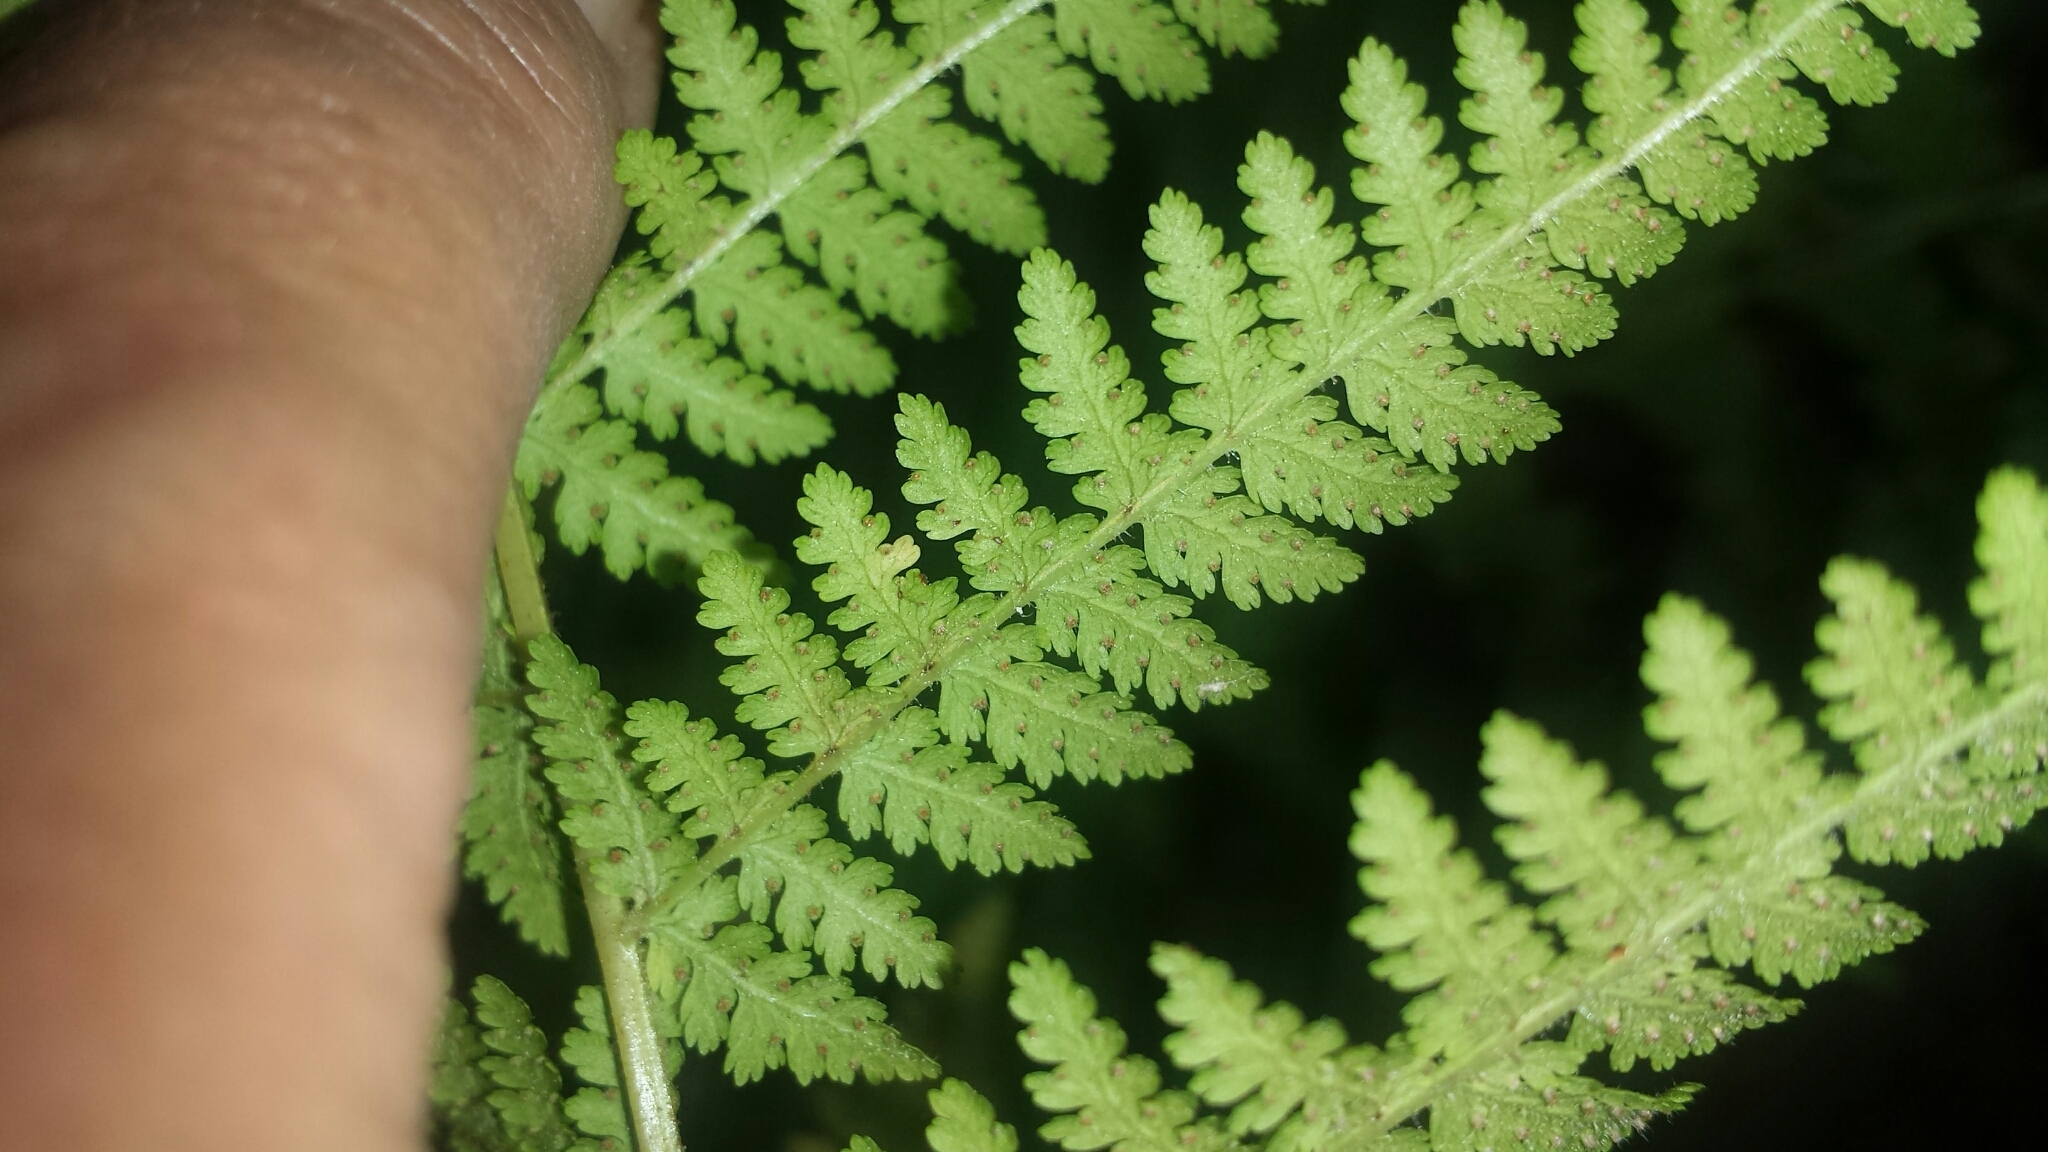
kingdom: Plantae
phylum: Tracheophyta
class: Polypodiopsida
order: Polypodiales
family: Dennstaedtiaceae
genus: Sitobolium
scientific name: Sitobolium punctilobum
